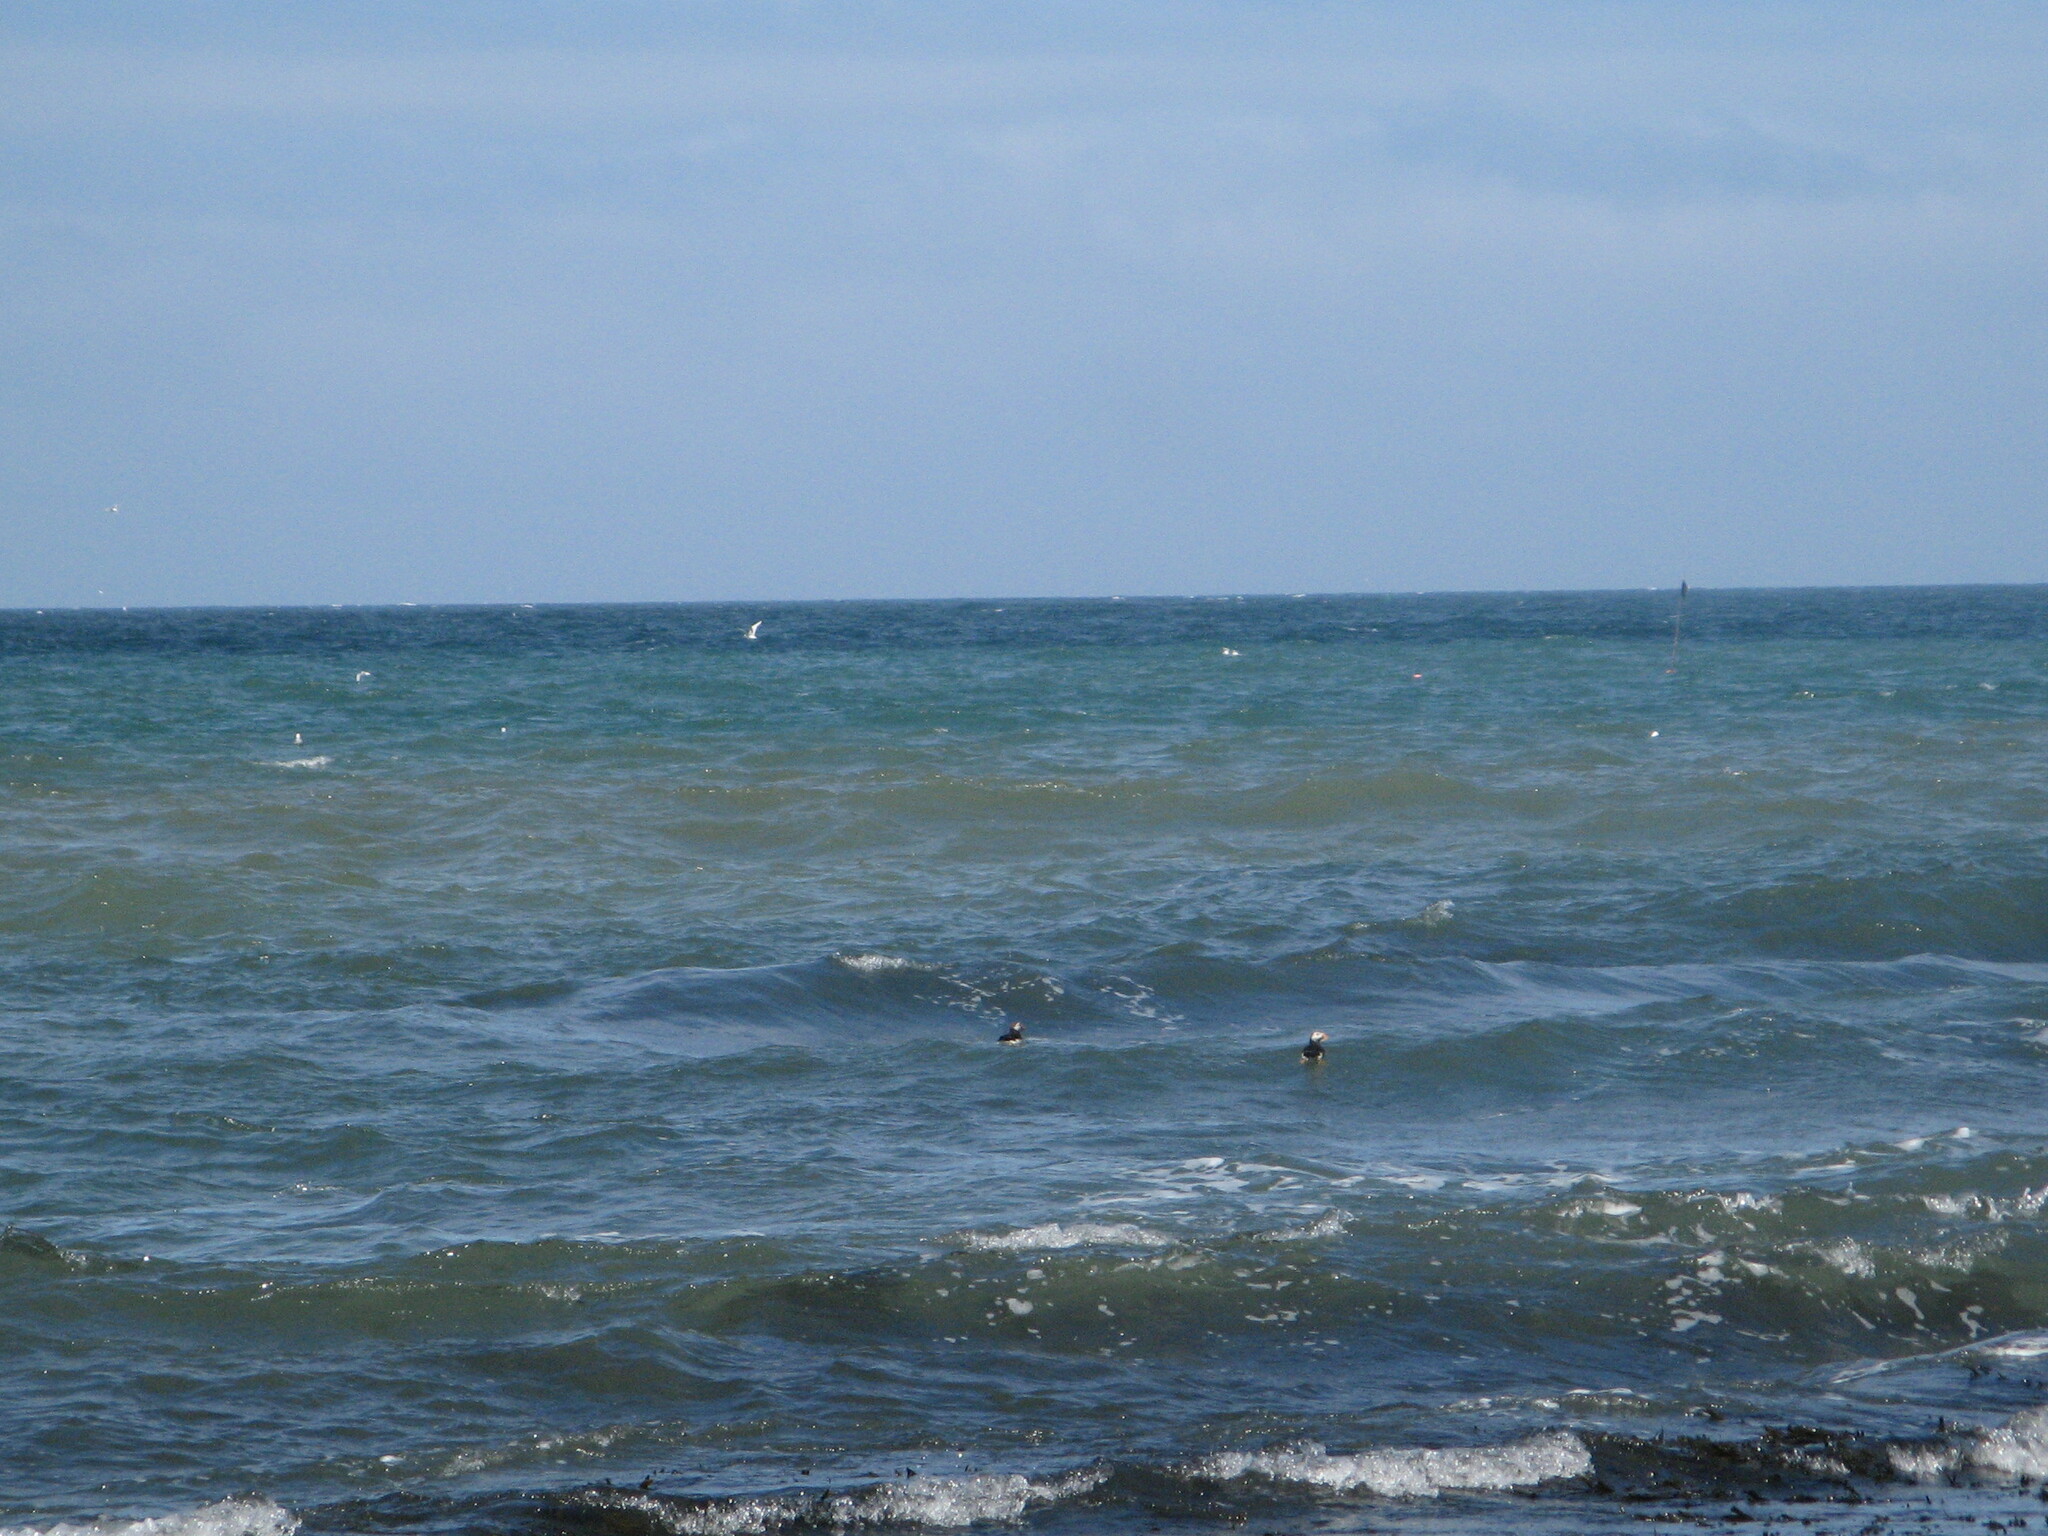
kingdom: Animalia
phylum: Chordata
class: Aves
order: Charadriiformes
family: Alcidae
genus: Fratercula
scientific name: Fratercula arctica
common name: Atlantic puffin
